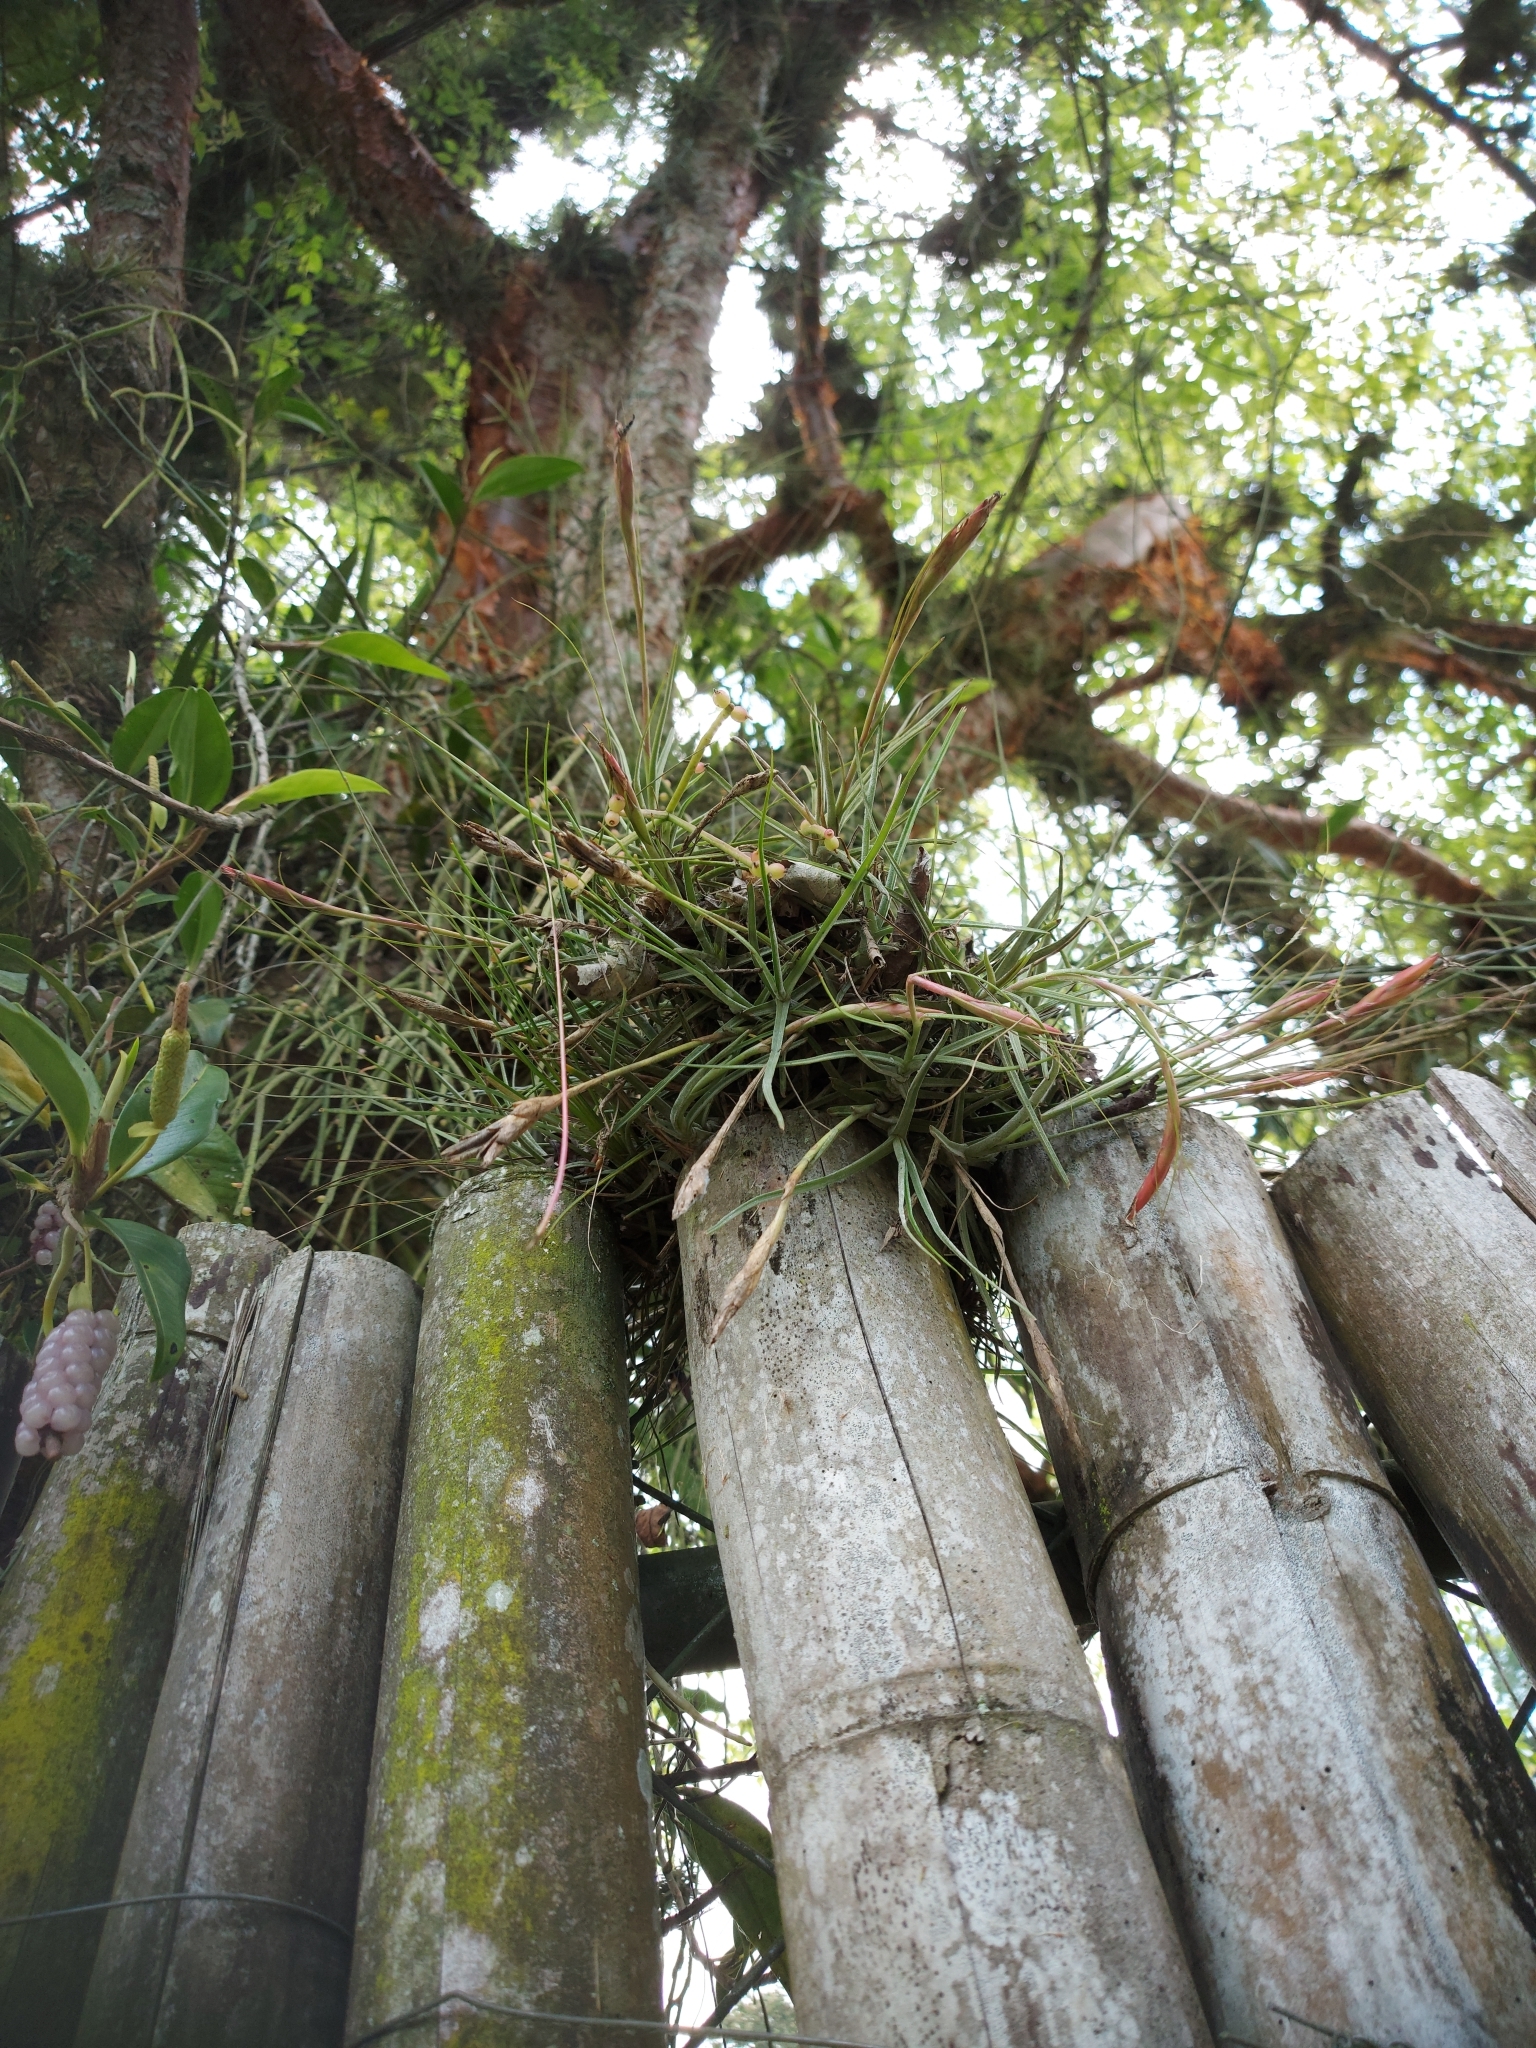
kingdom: Plantae
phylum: Tracheophyta
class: Liliopsida
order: Poales
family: Bromeliaceae
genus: Tillandsia
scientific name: Tillandsia schiedeana
